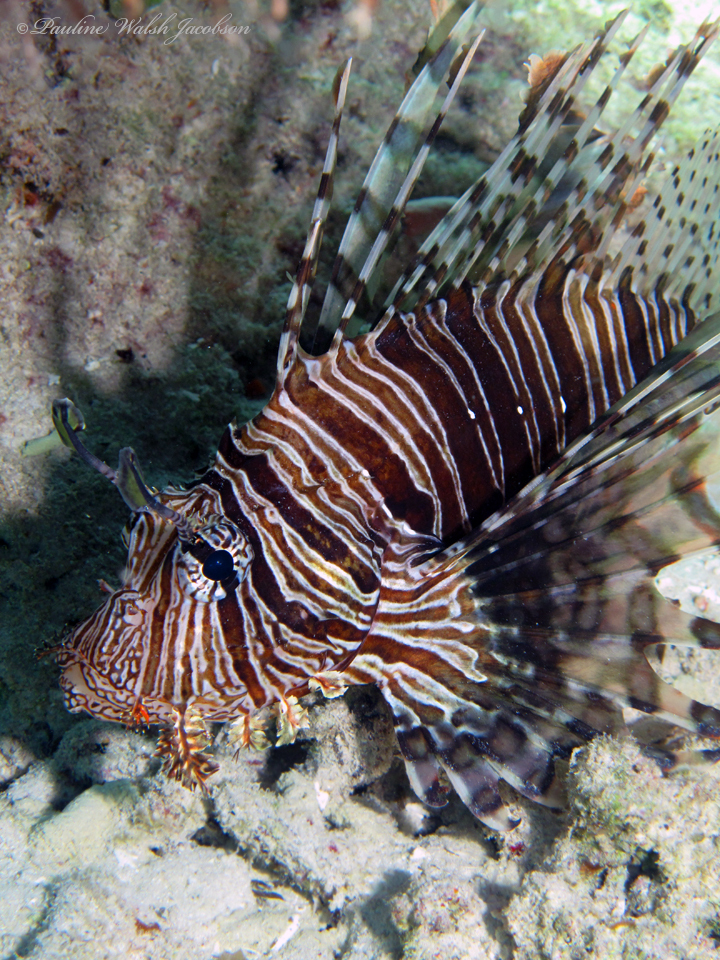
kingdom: Animalia
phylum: Chordata
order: Scorpaeniformes
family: Scorpaenidae
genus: Pterois
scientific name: Pterois volitans
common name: Lionfish
